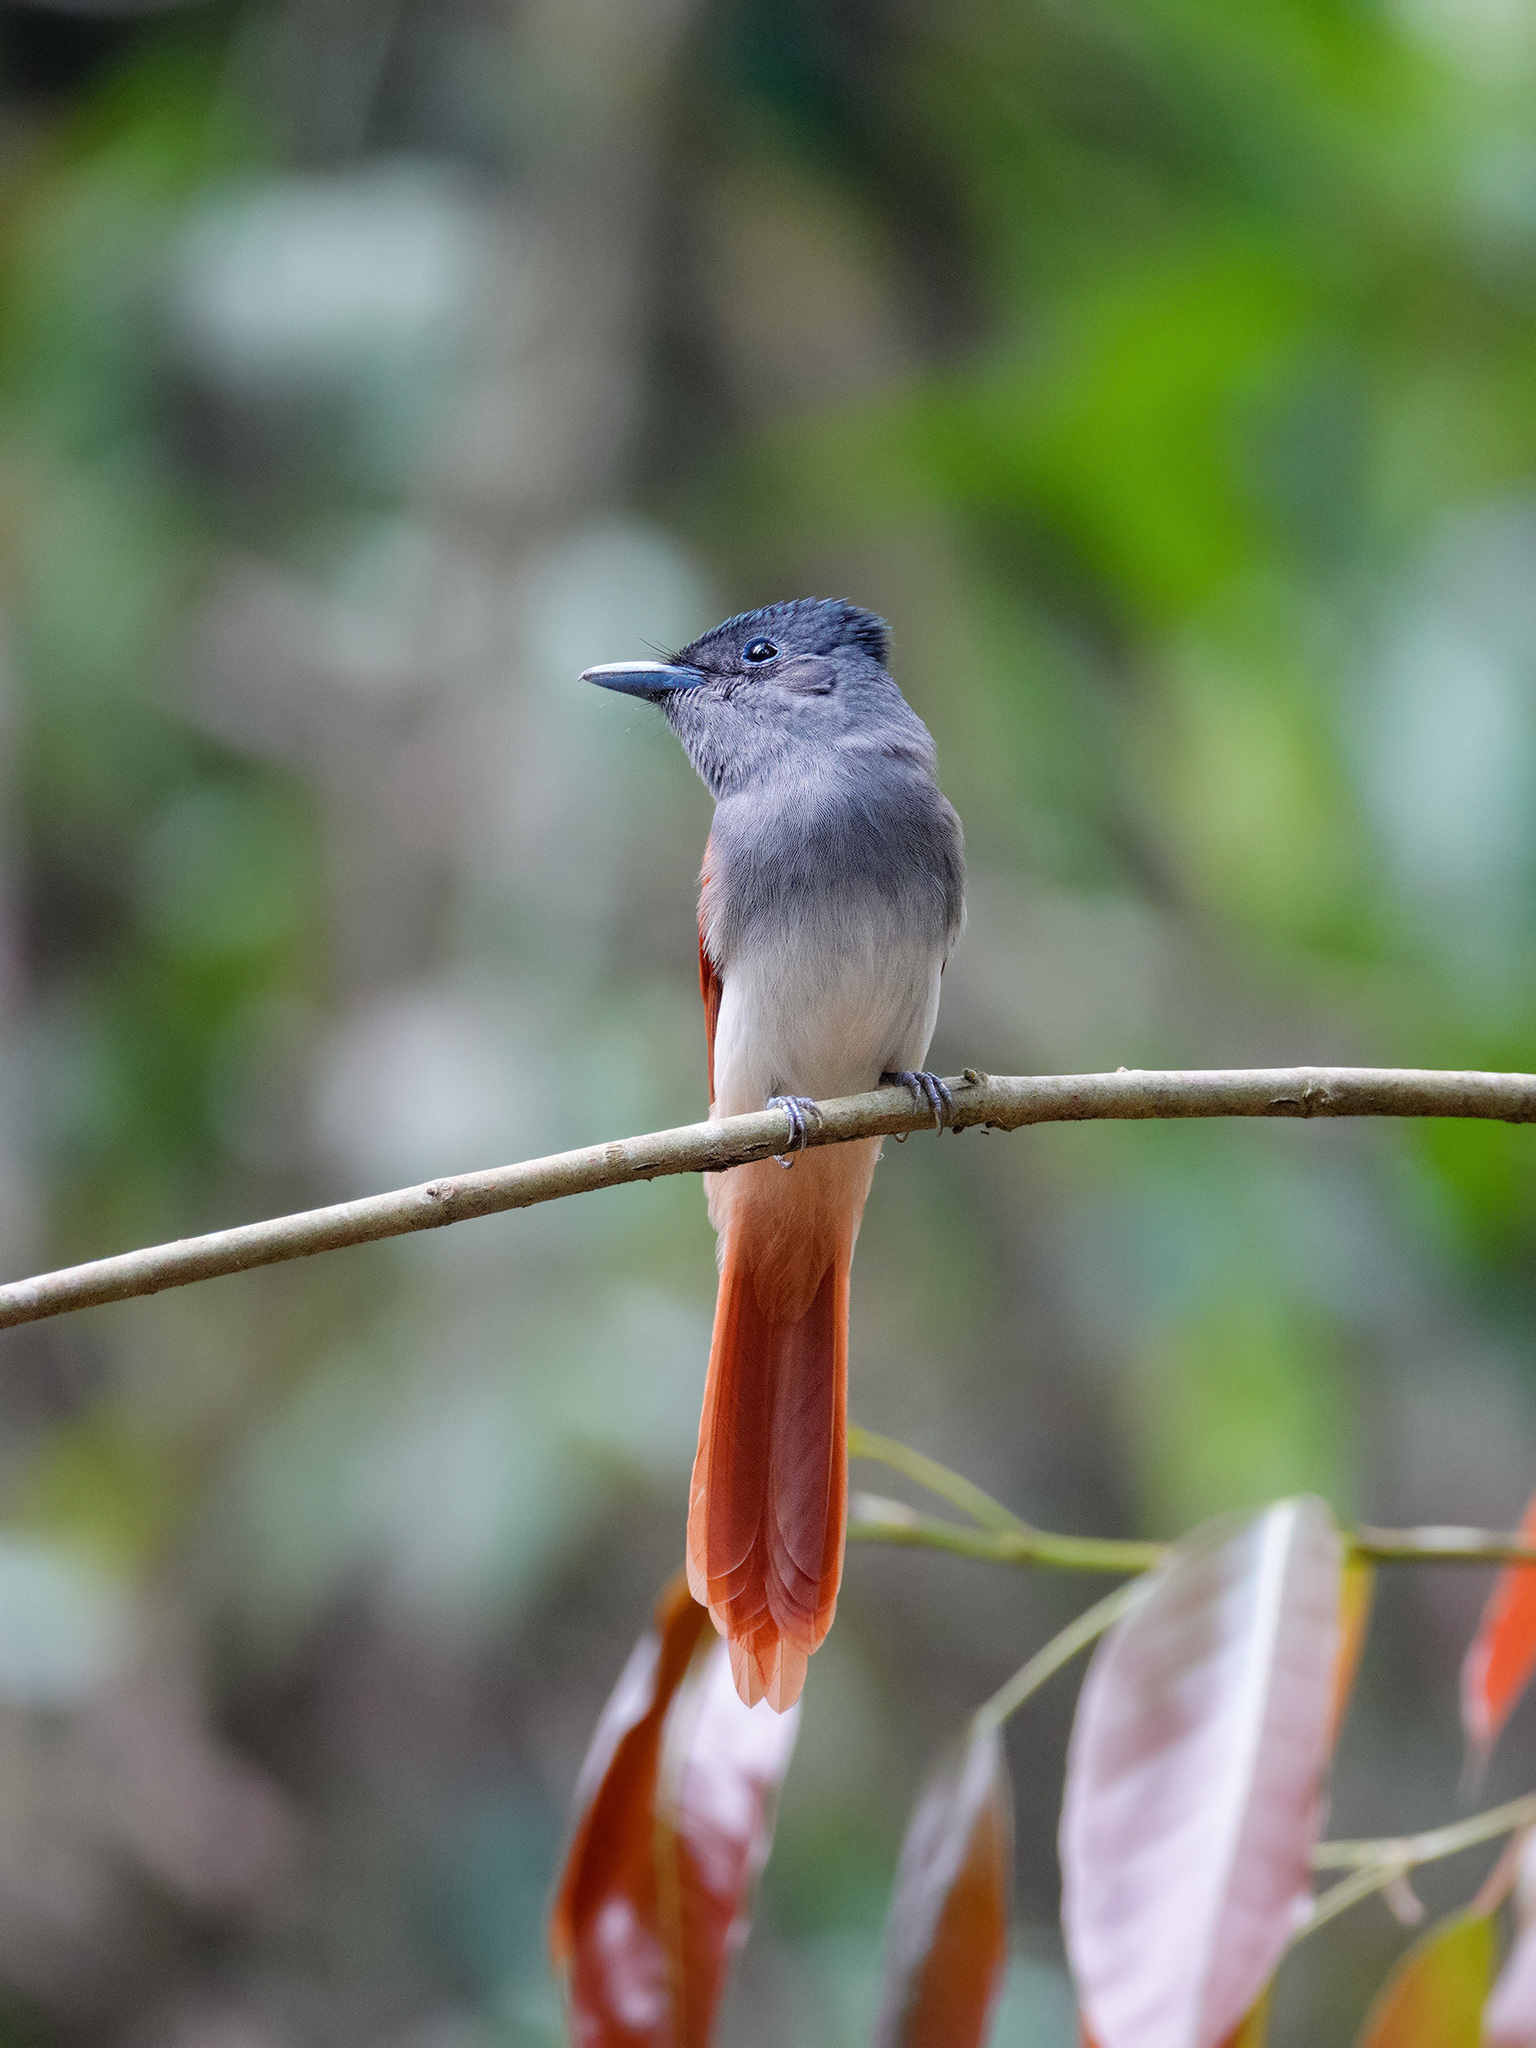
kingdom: Animalia
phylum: Chordata
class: Aves
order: Passeriformes
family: Monarchidae
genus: Terpsiphone
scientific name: Terpsiphone paradisi
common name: Indian paradise flycatcher
